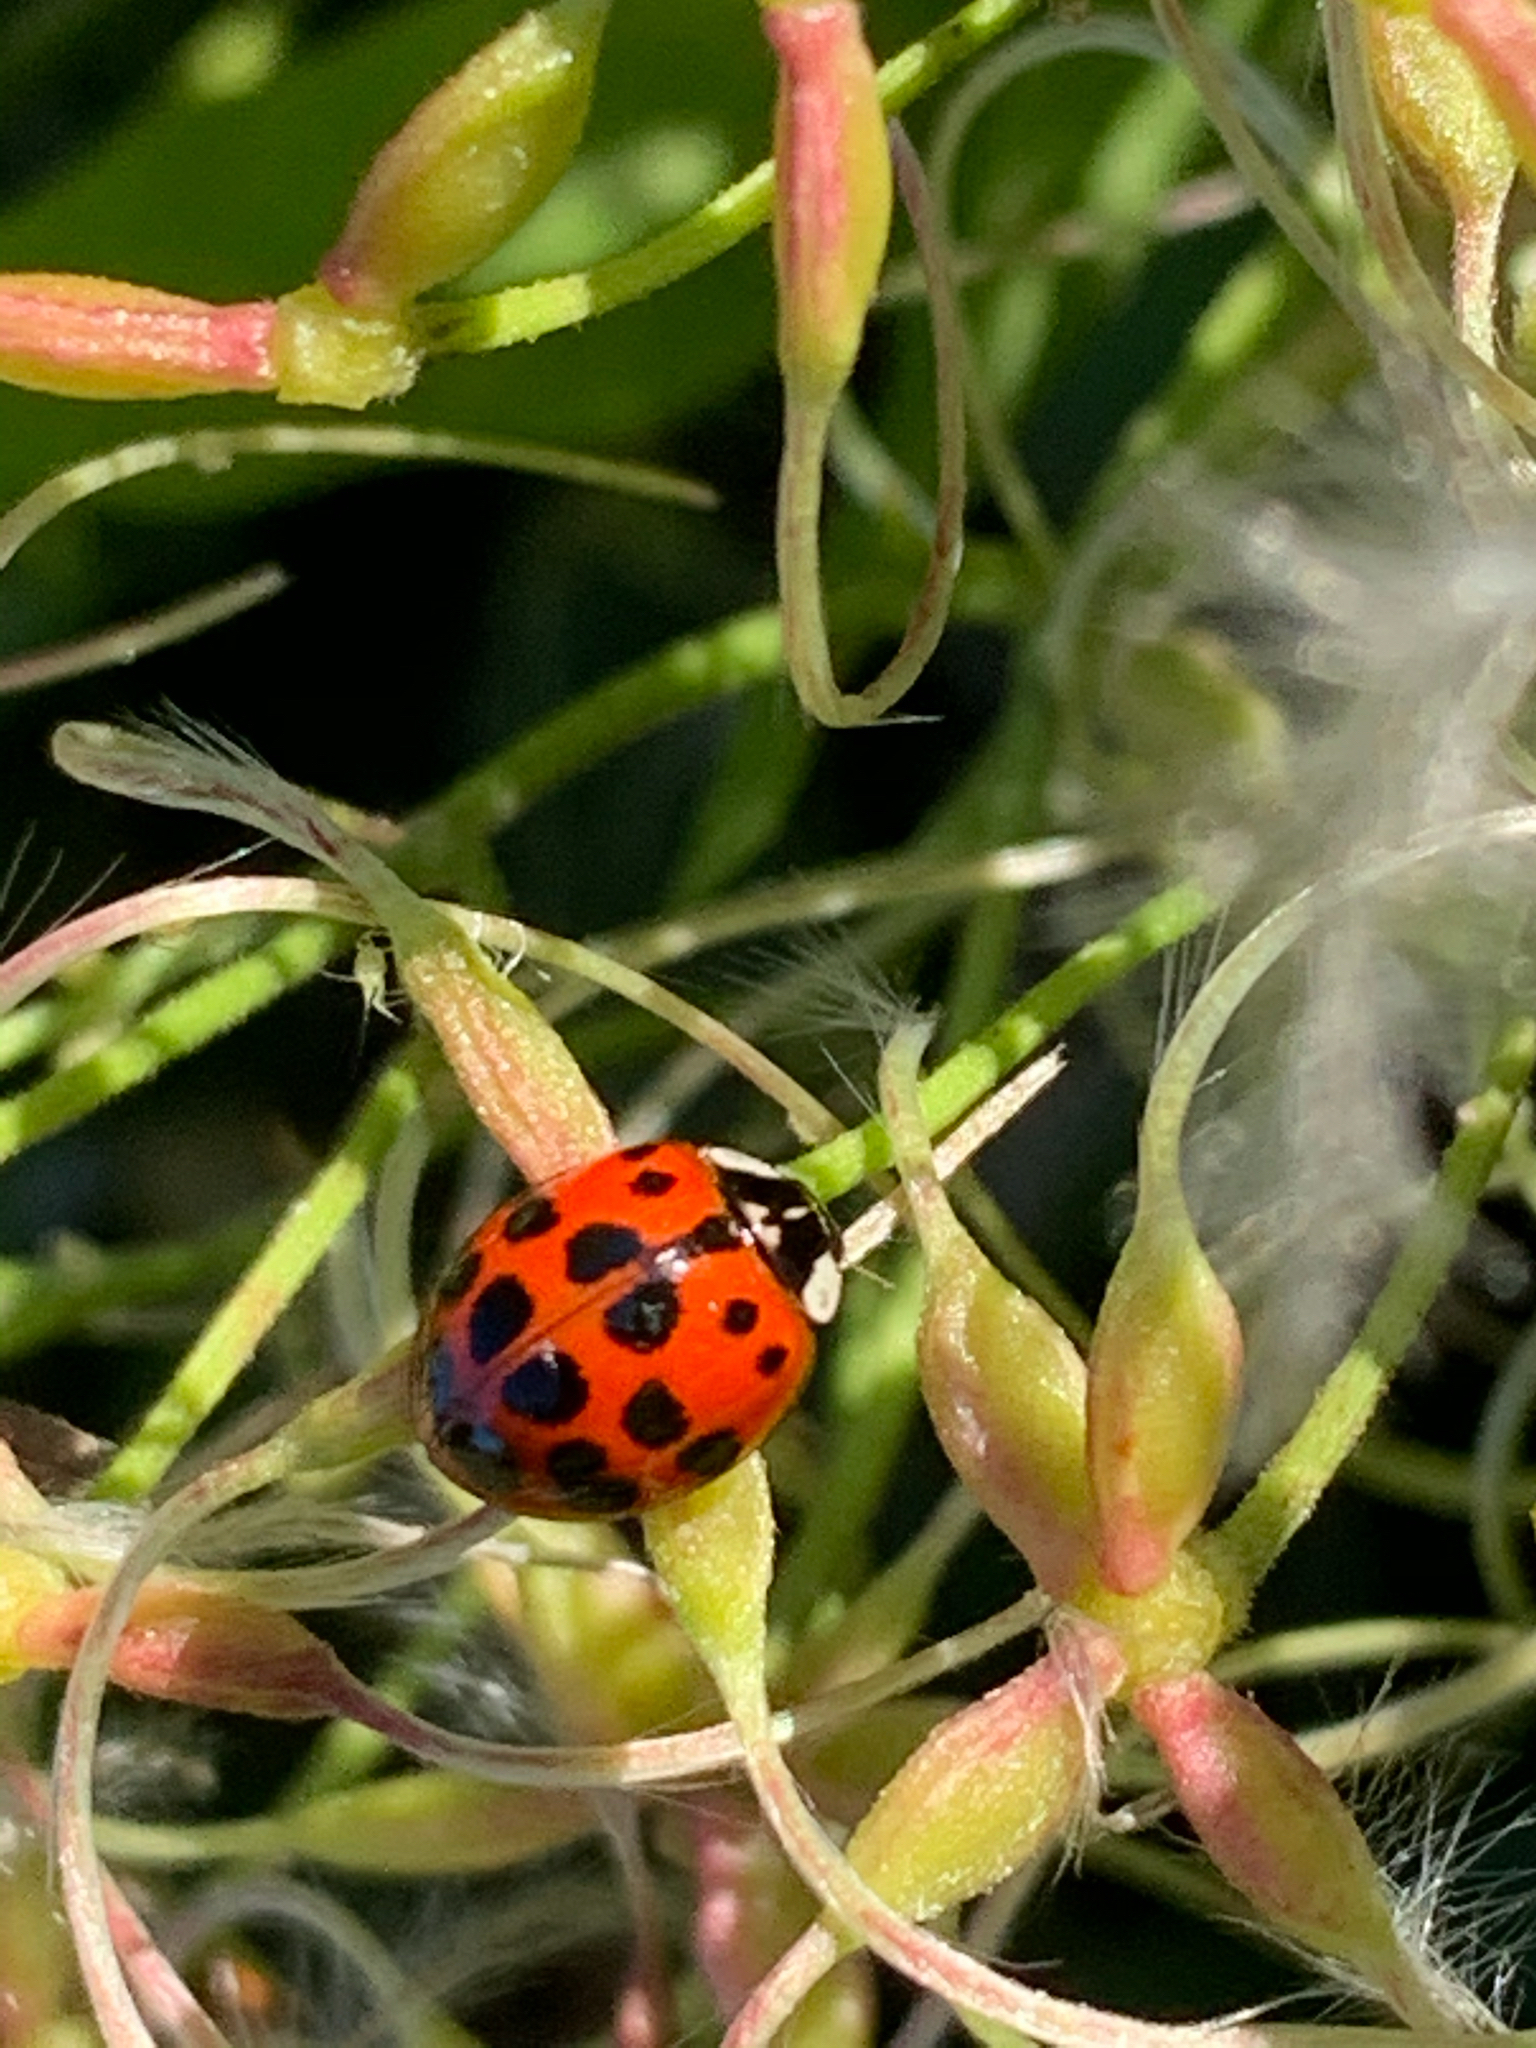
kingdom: Animalia
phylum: Arthropoda
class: Insecta
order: Coleoptera
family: Coccinellidae
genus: Harmonia
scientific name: Harmonia axyridis
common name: Harlequin ladybird
